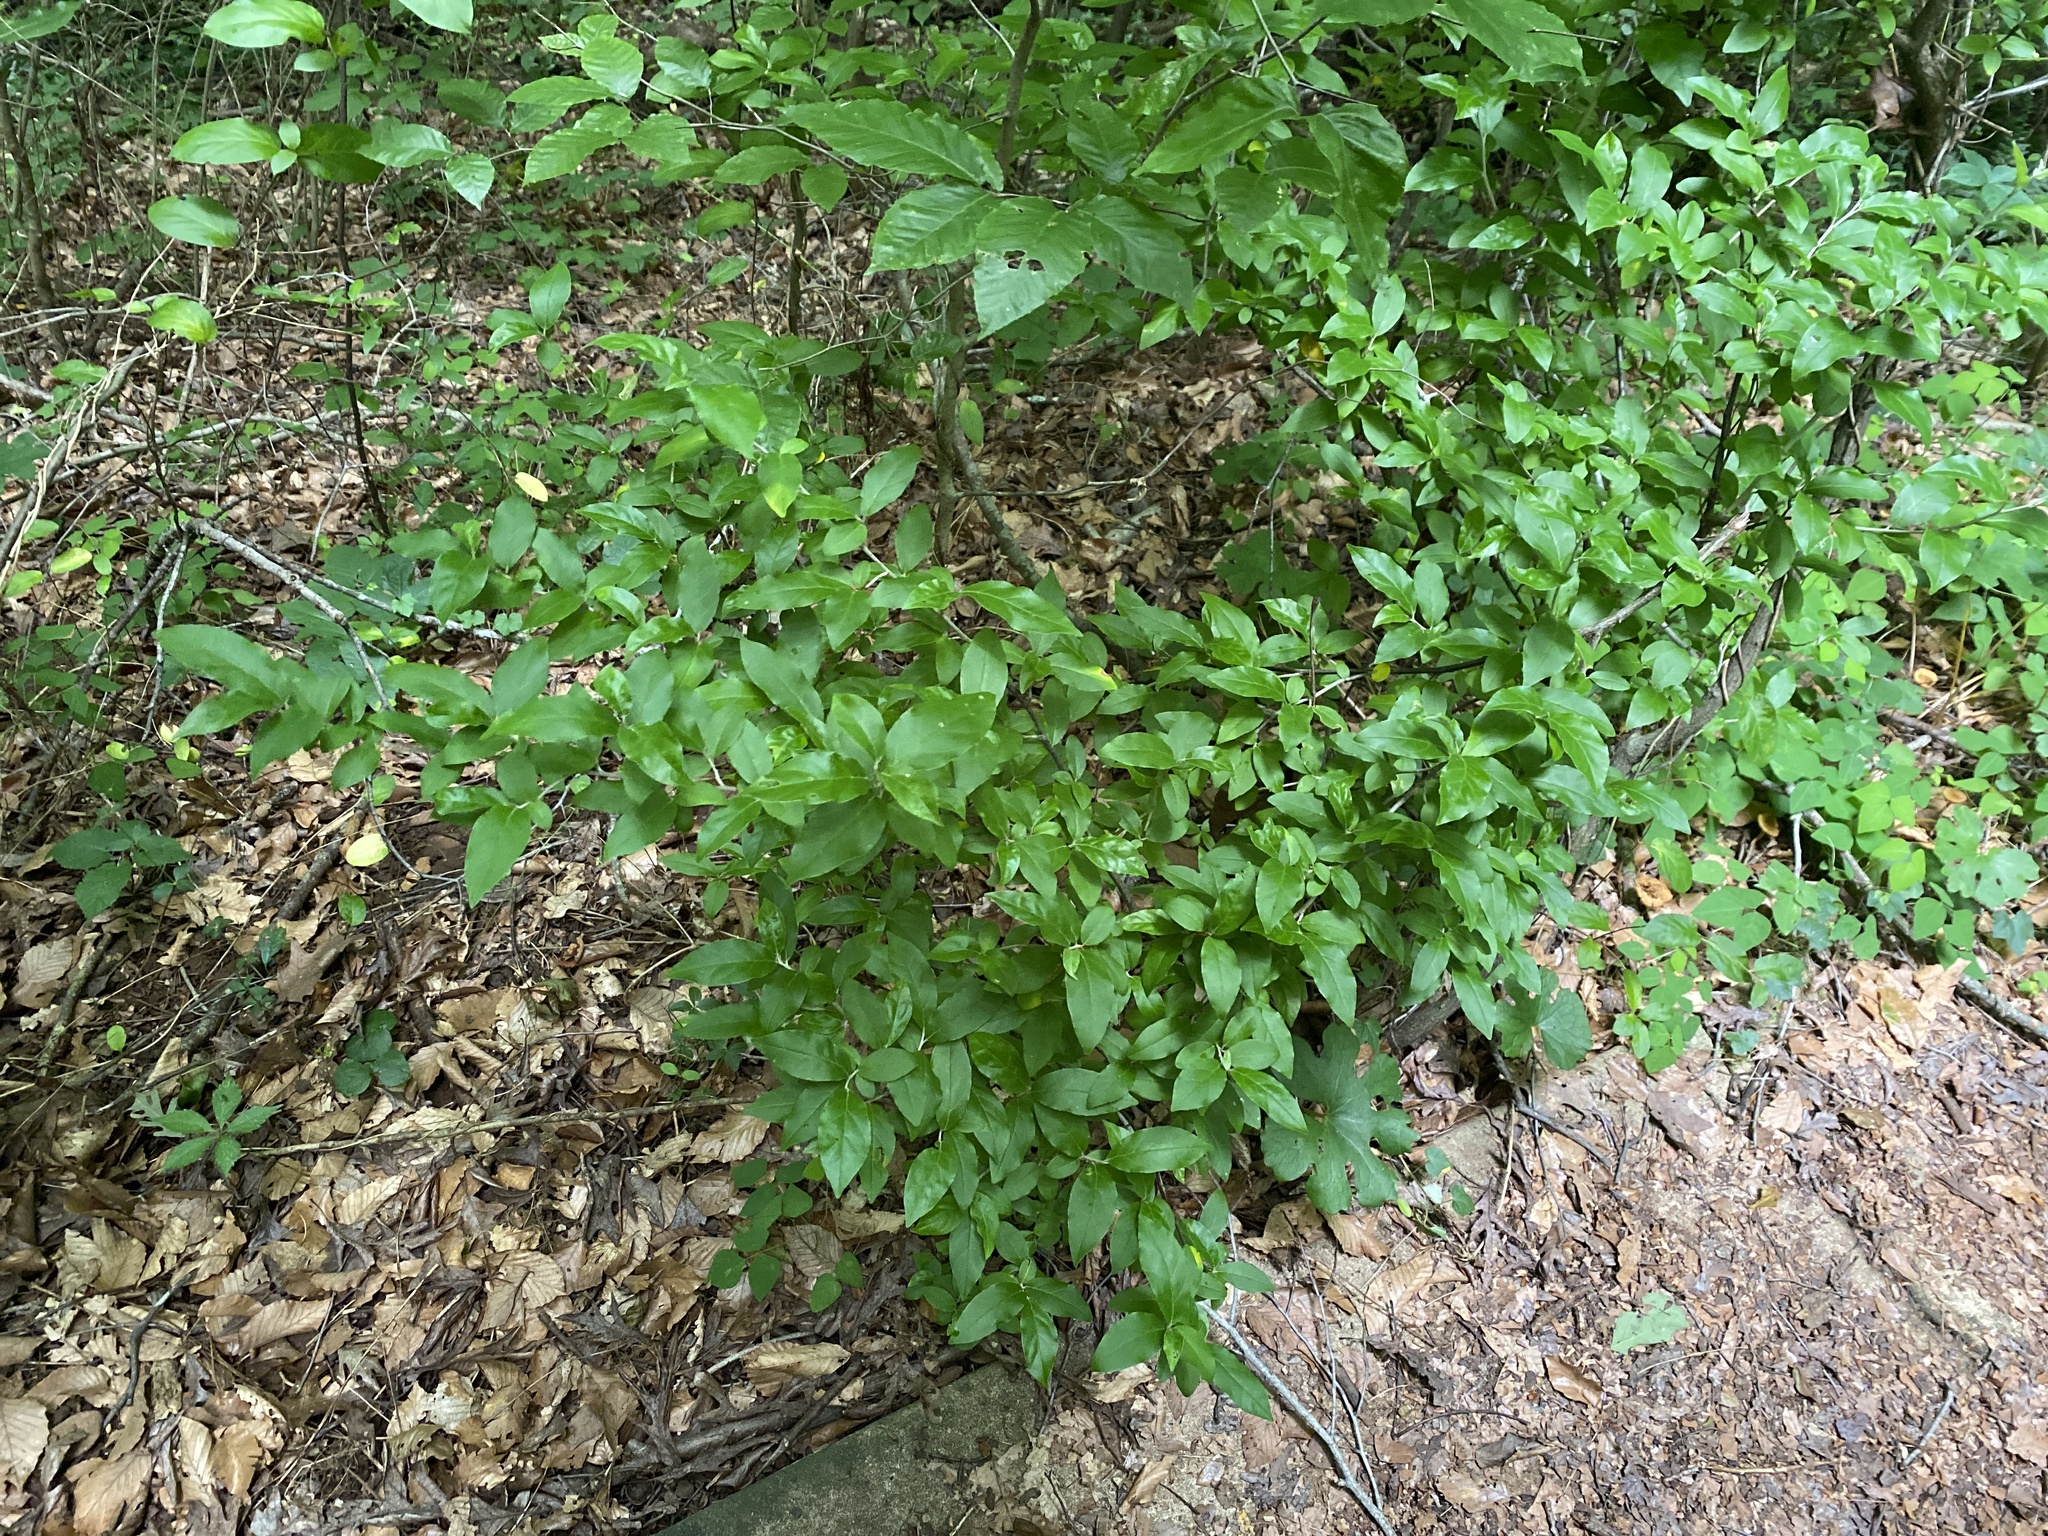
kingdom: Plantae
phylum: Tracheophyta
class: Magnoliopsida
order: Rosales
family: Elaeagnaceae
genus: Elaeagnus
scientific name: Elaeagnus umbellata
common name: Autumn olive
